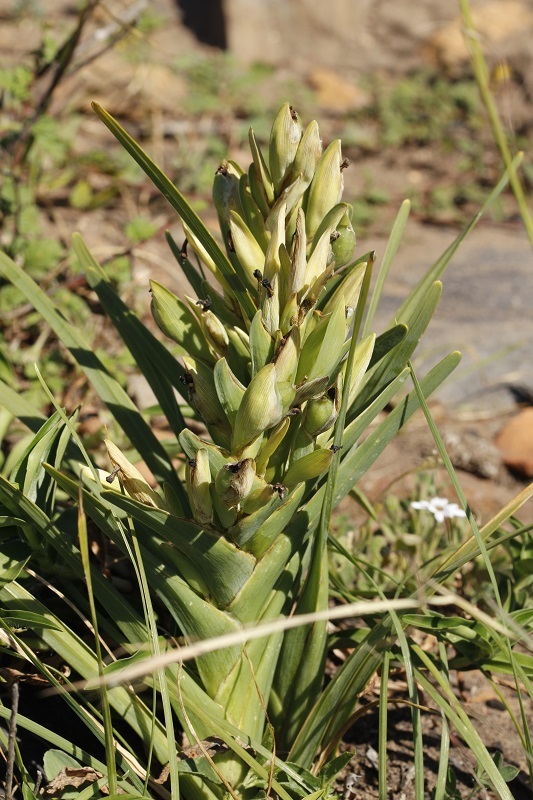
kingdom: Plantae
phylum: Tracheophyta
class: Liliopsida
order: Asparagales
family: Iridaceae
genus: Ferraria
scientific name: Ferraria crispa
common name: Black-flag
